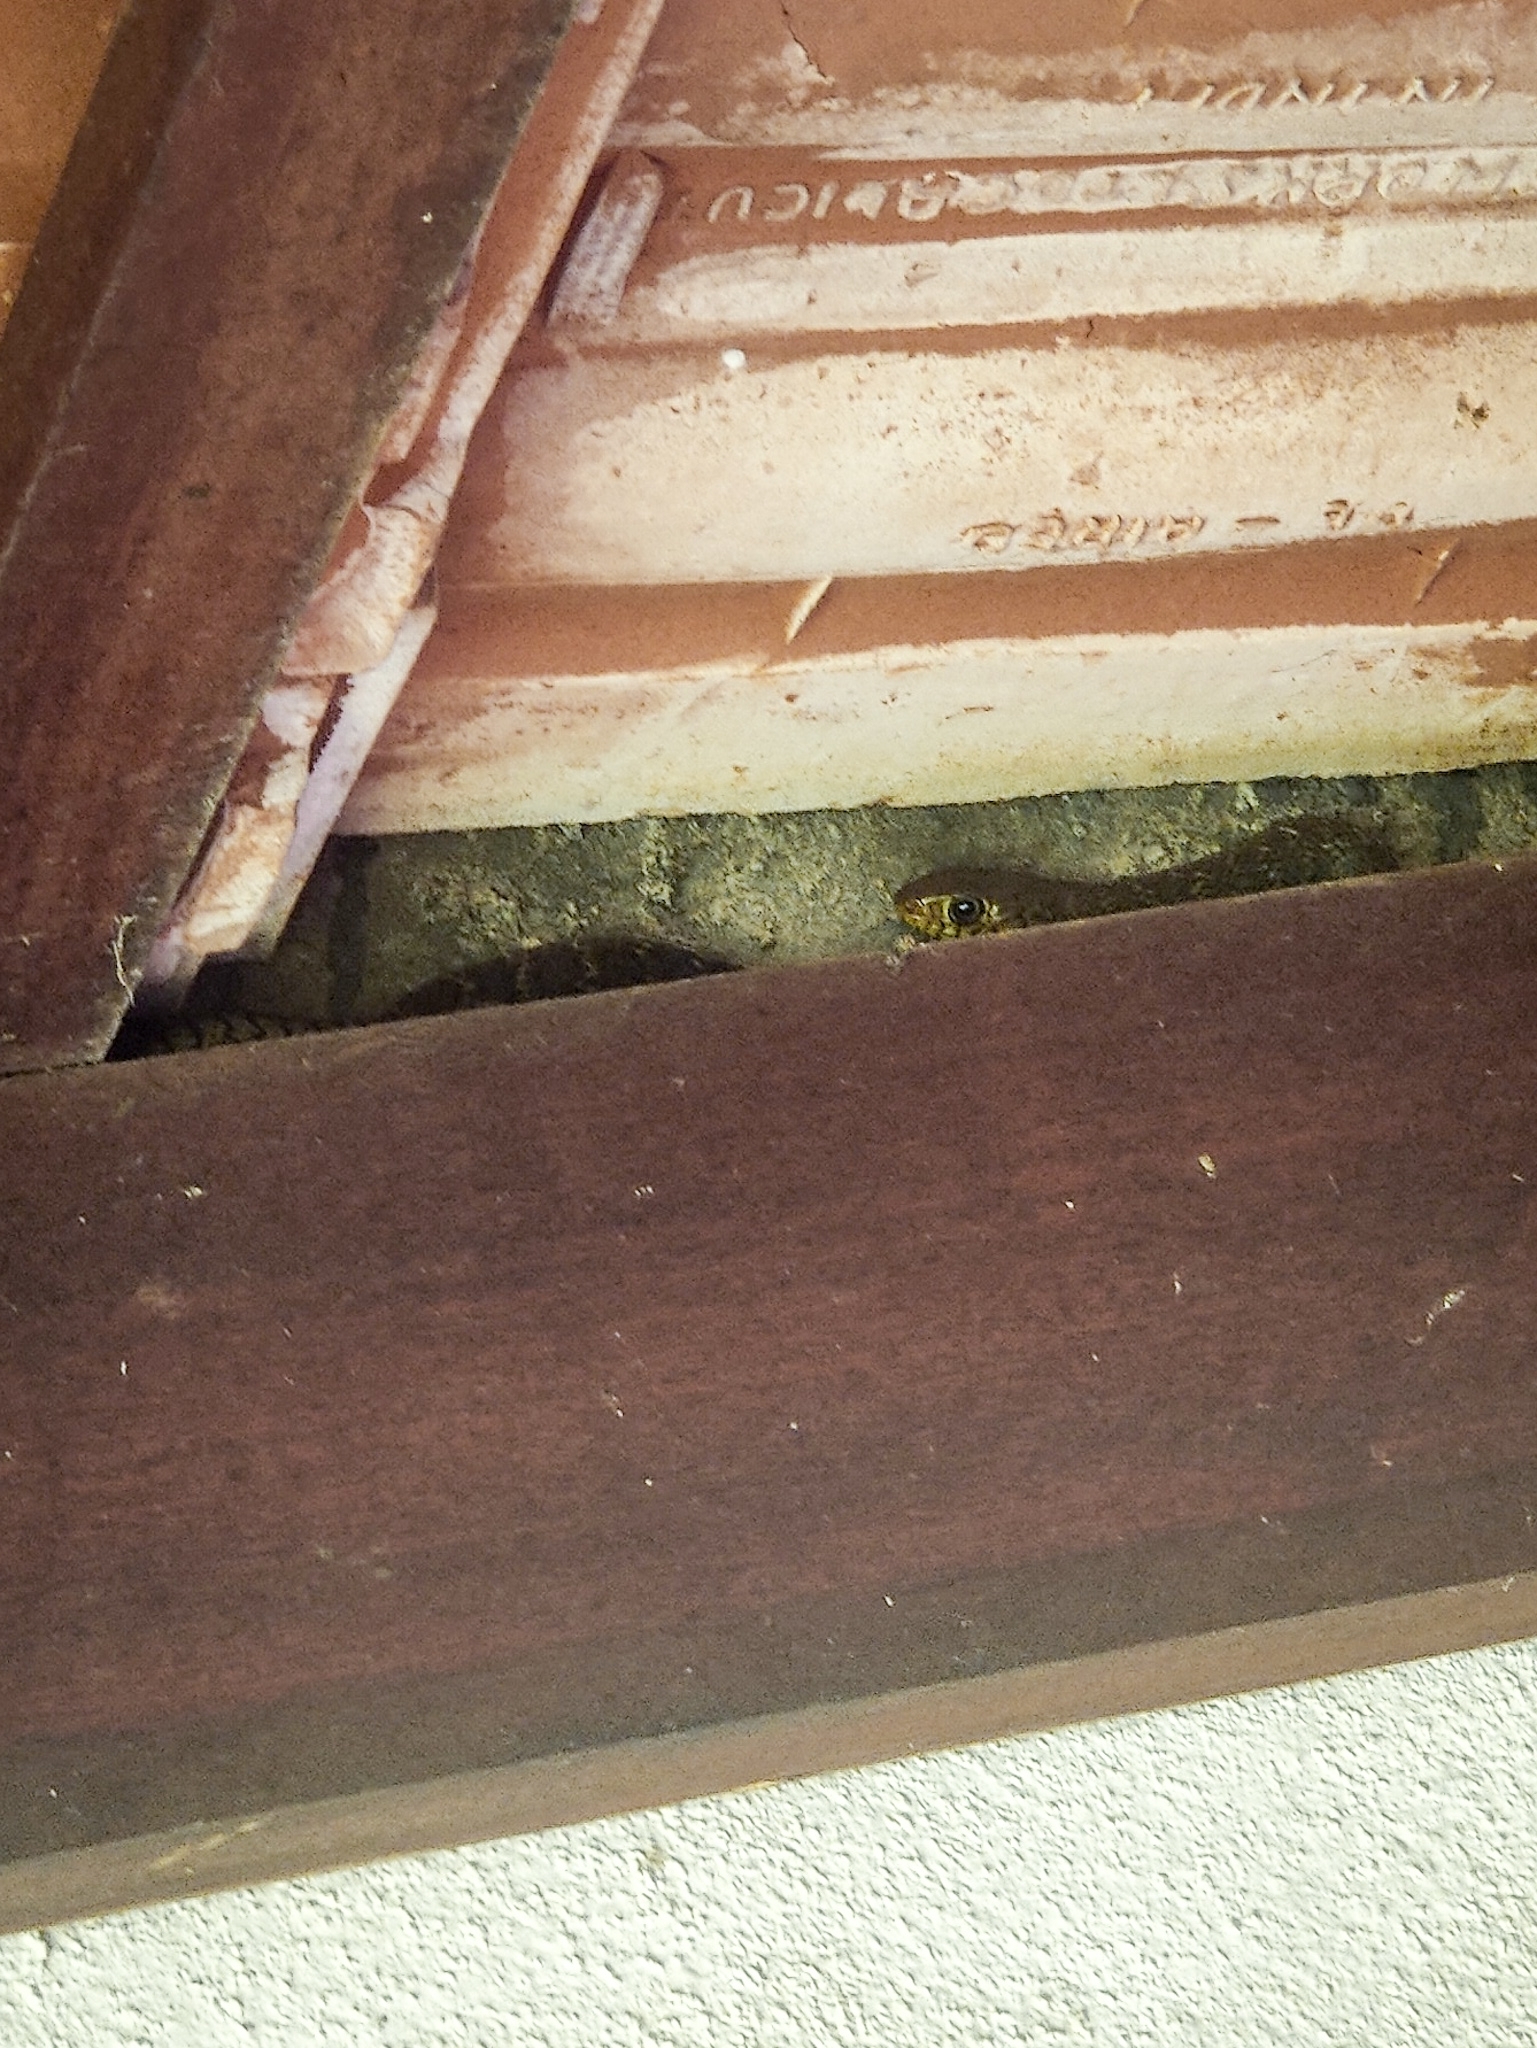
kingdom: Animalia
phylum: Chordata
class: Squamata
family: Colubridae
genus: Ptyas
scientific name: Ptyas mucosa
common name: Oriental ratsnake
